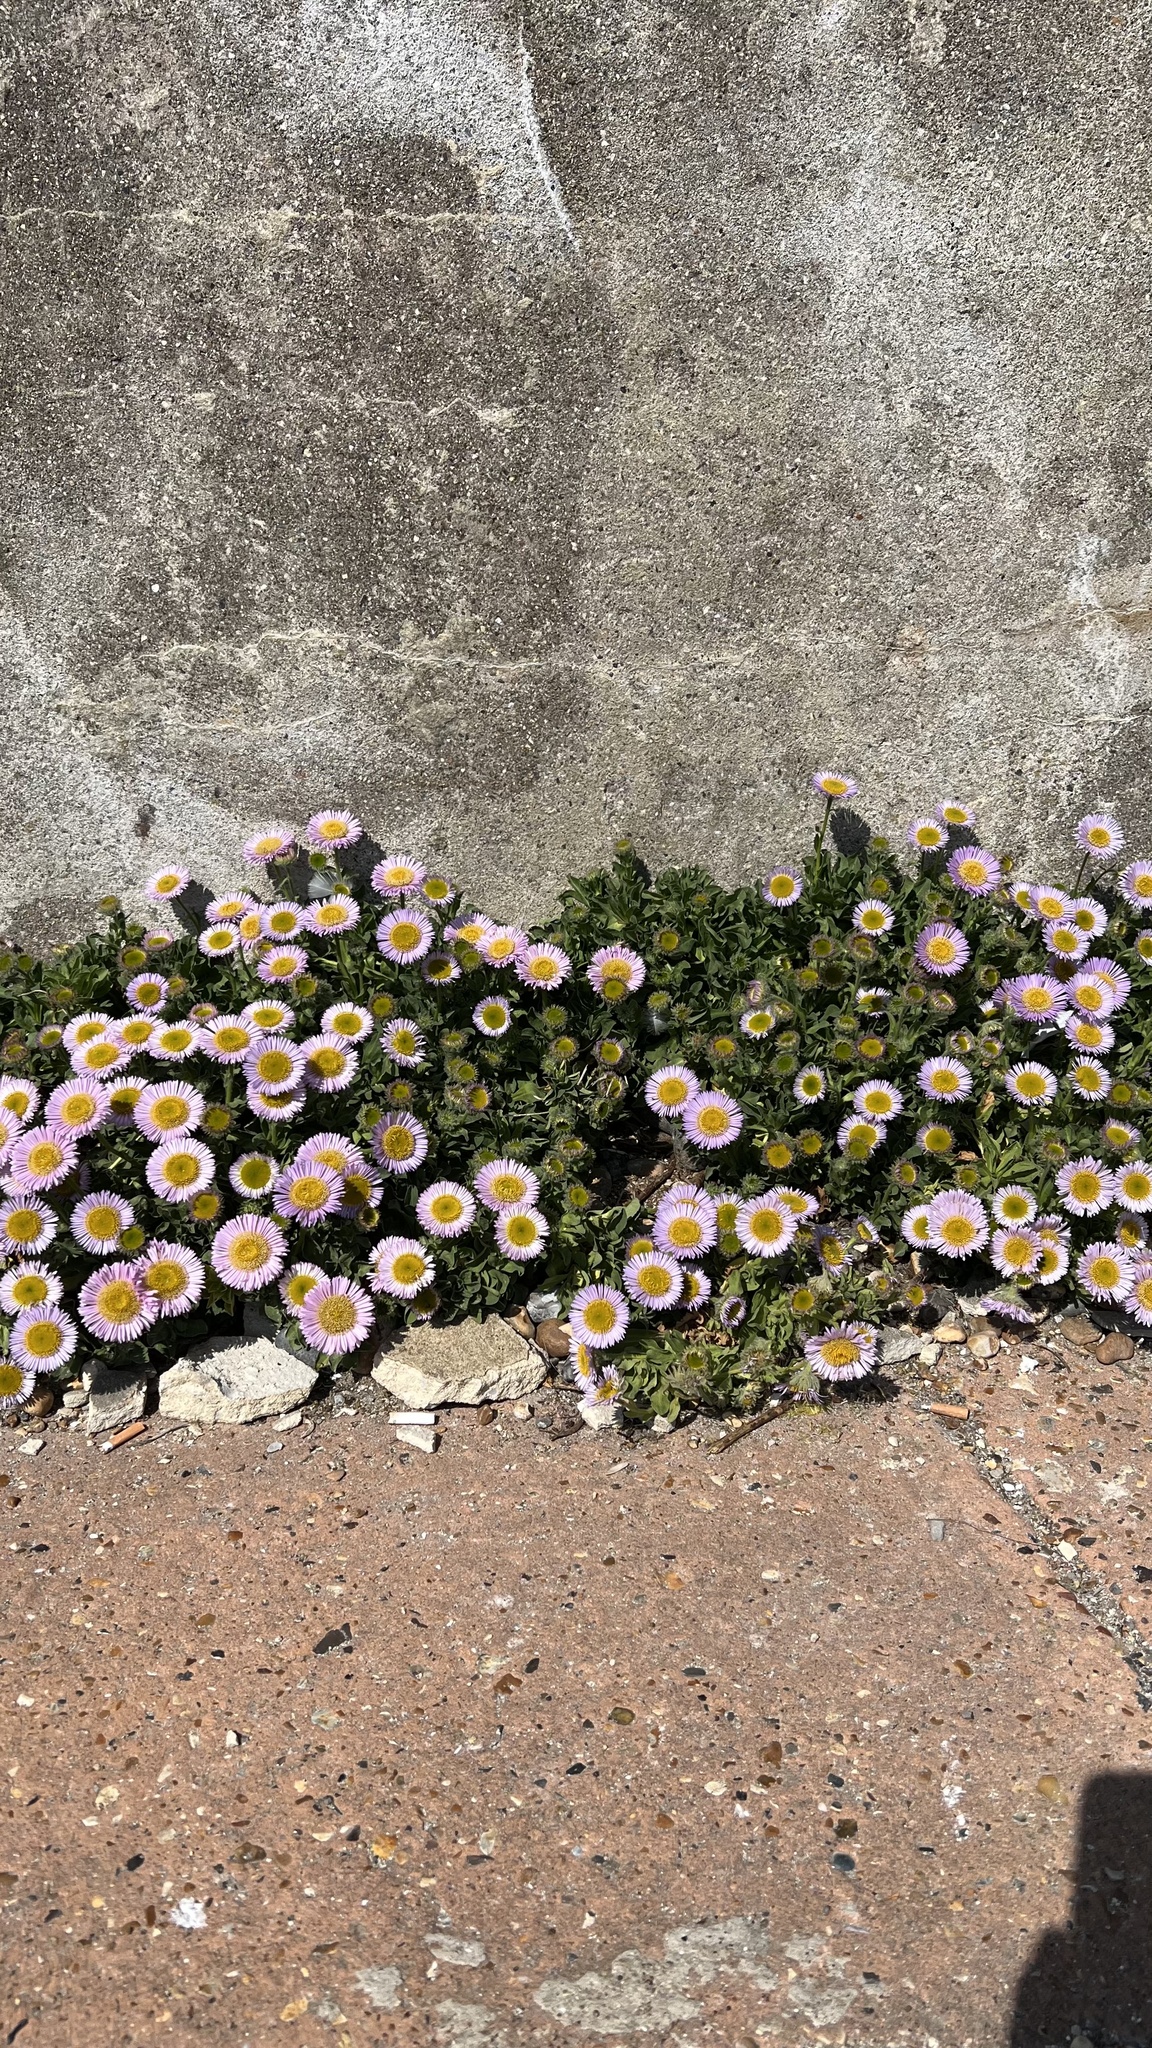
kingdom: Plantae
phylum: Tracheophyta
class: Magnoliopsida
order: Asterales
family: Asteraceae
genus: Erigeron
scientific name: Erigeron glaucus
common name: Seaside daisy
